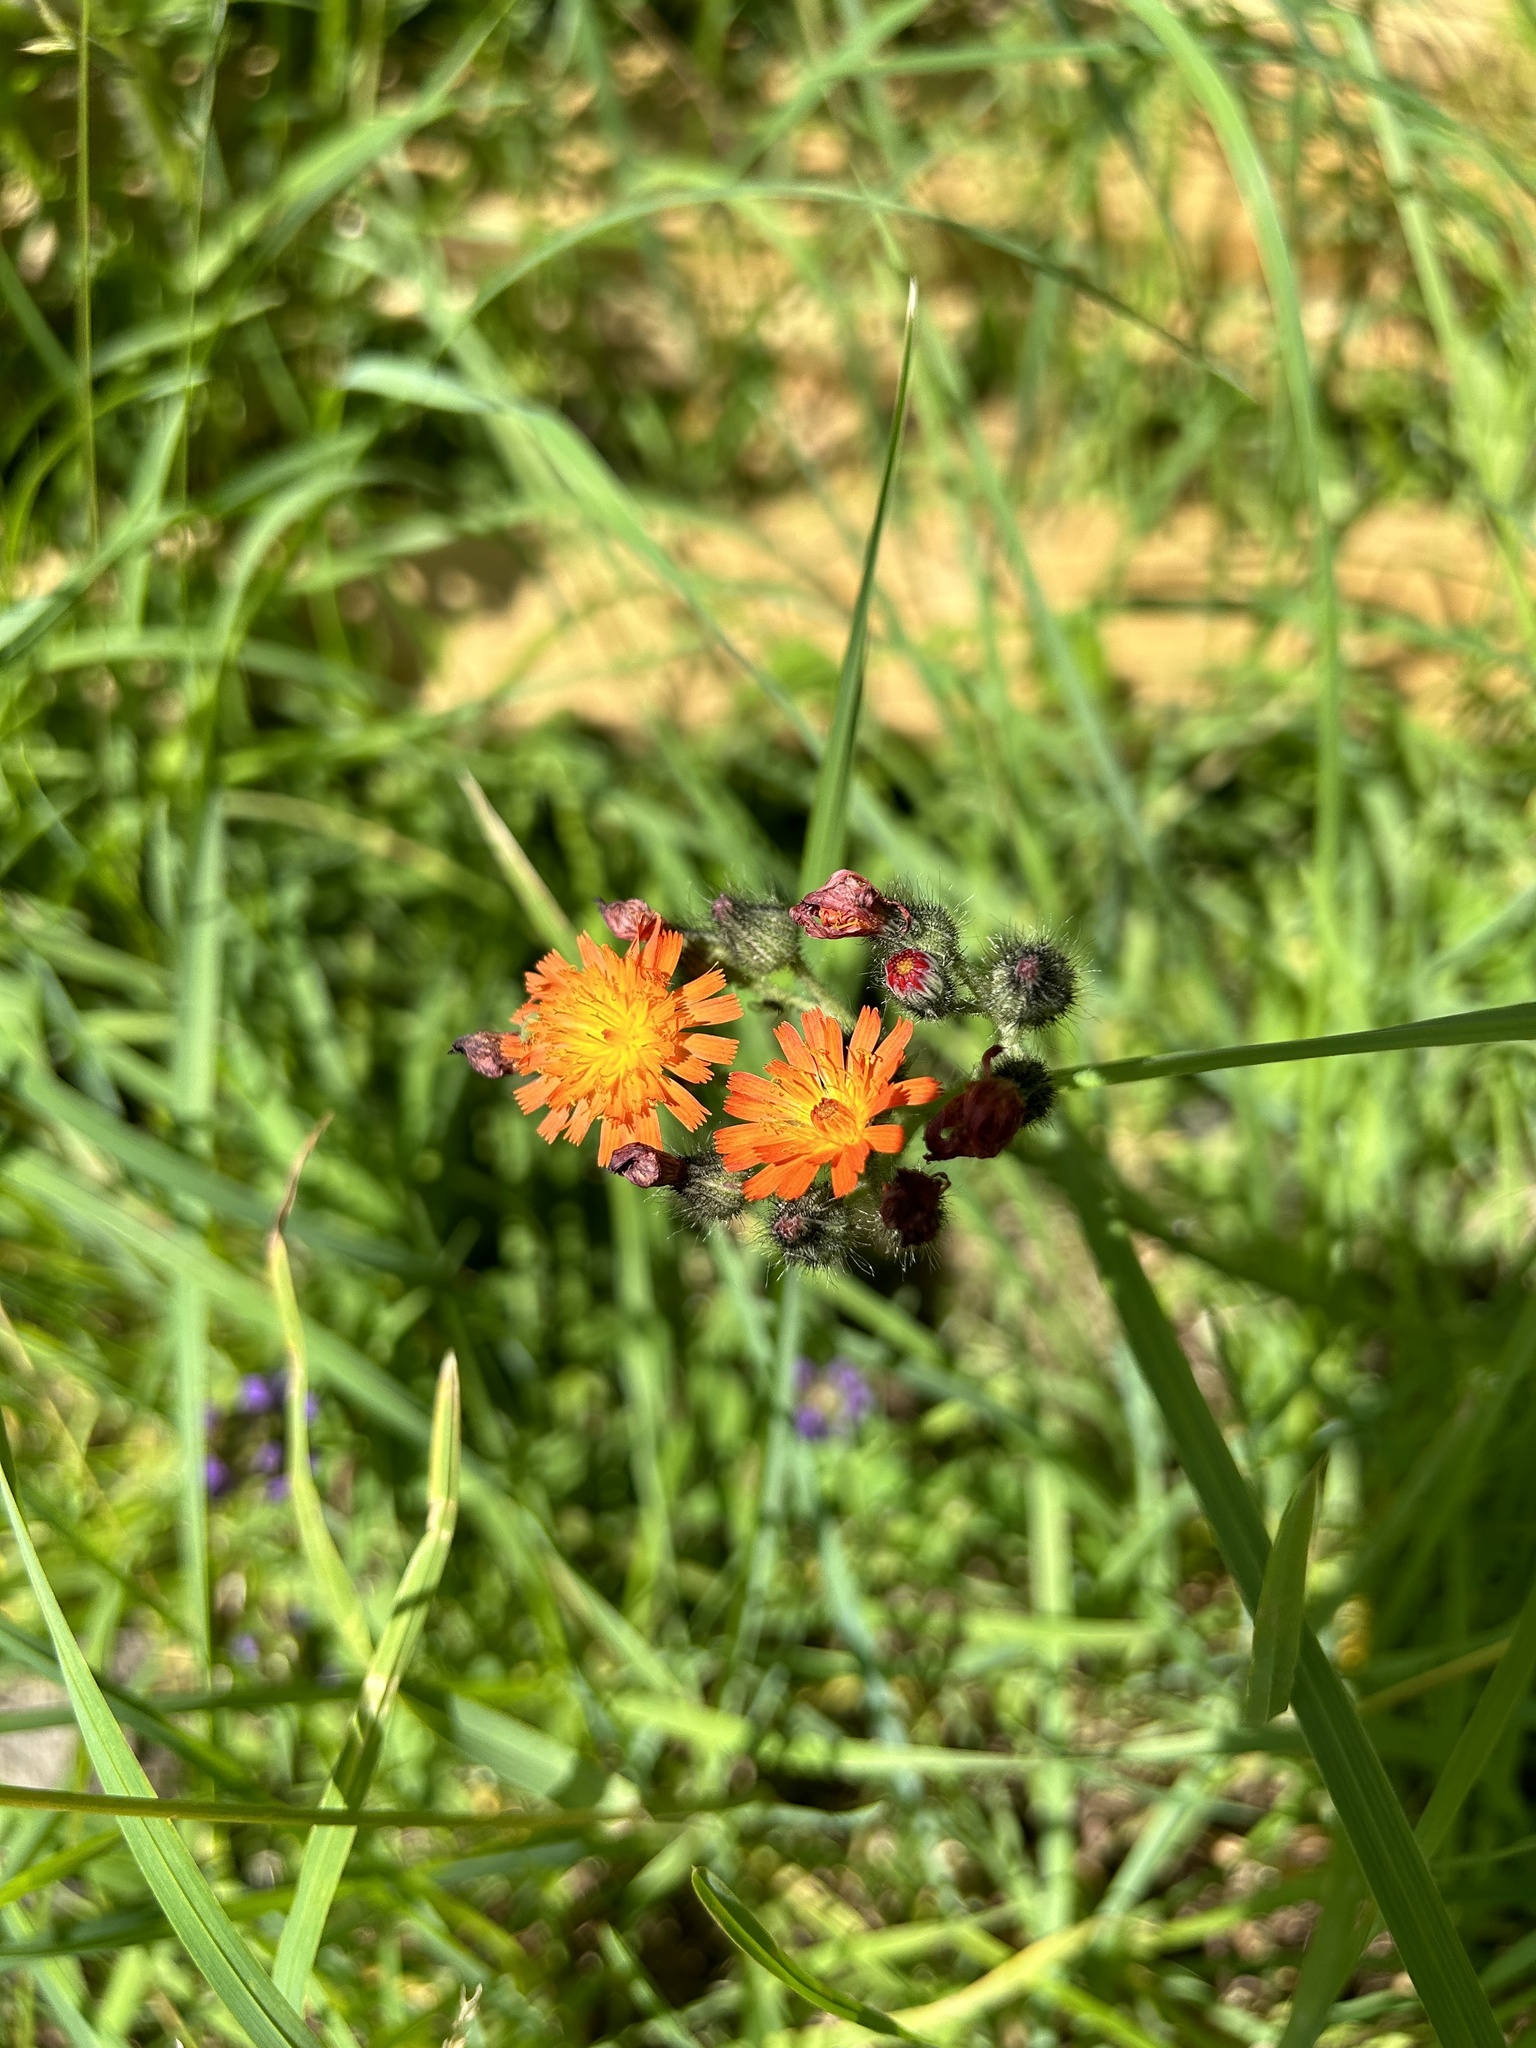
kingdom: Plantae
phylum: Tracheophyta
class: Magnoliopsida
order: Asterales
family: Asteraceae
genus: Pilosella
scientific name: Pilosella aurantiaca
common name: Fox-and-cubs
